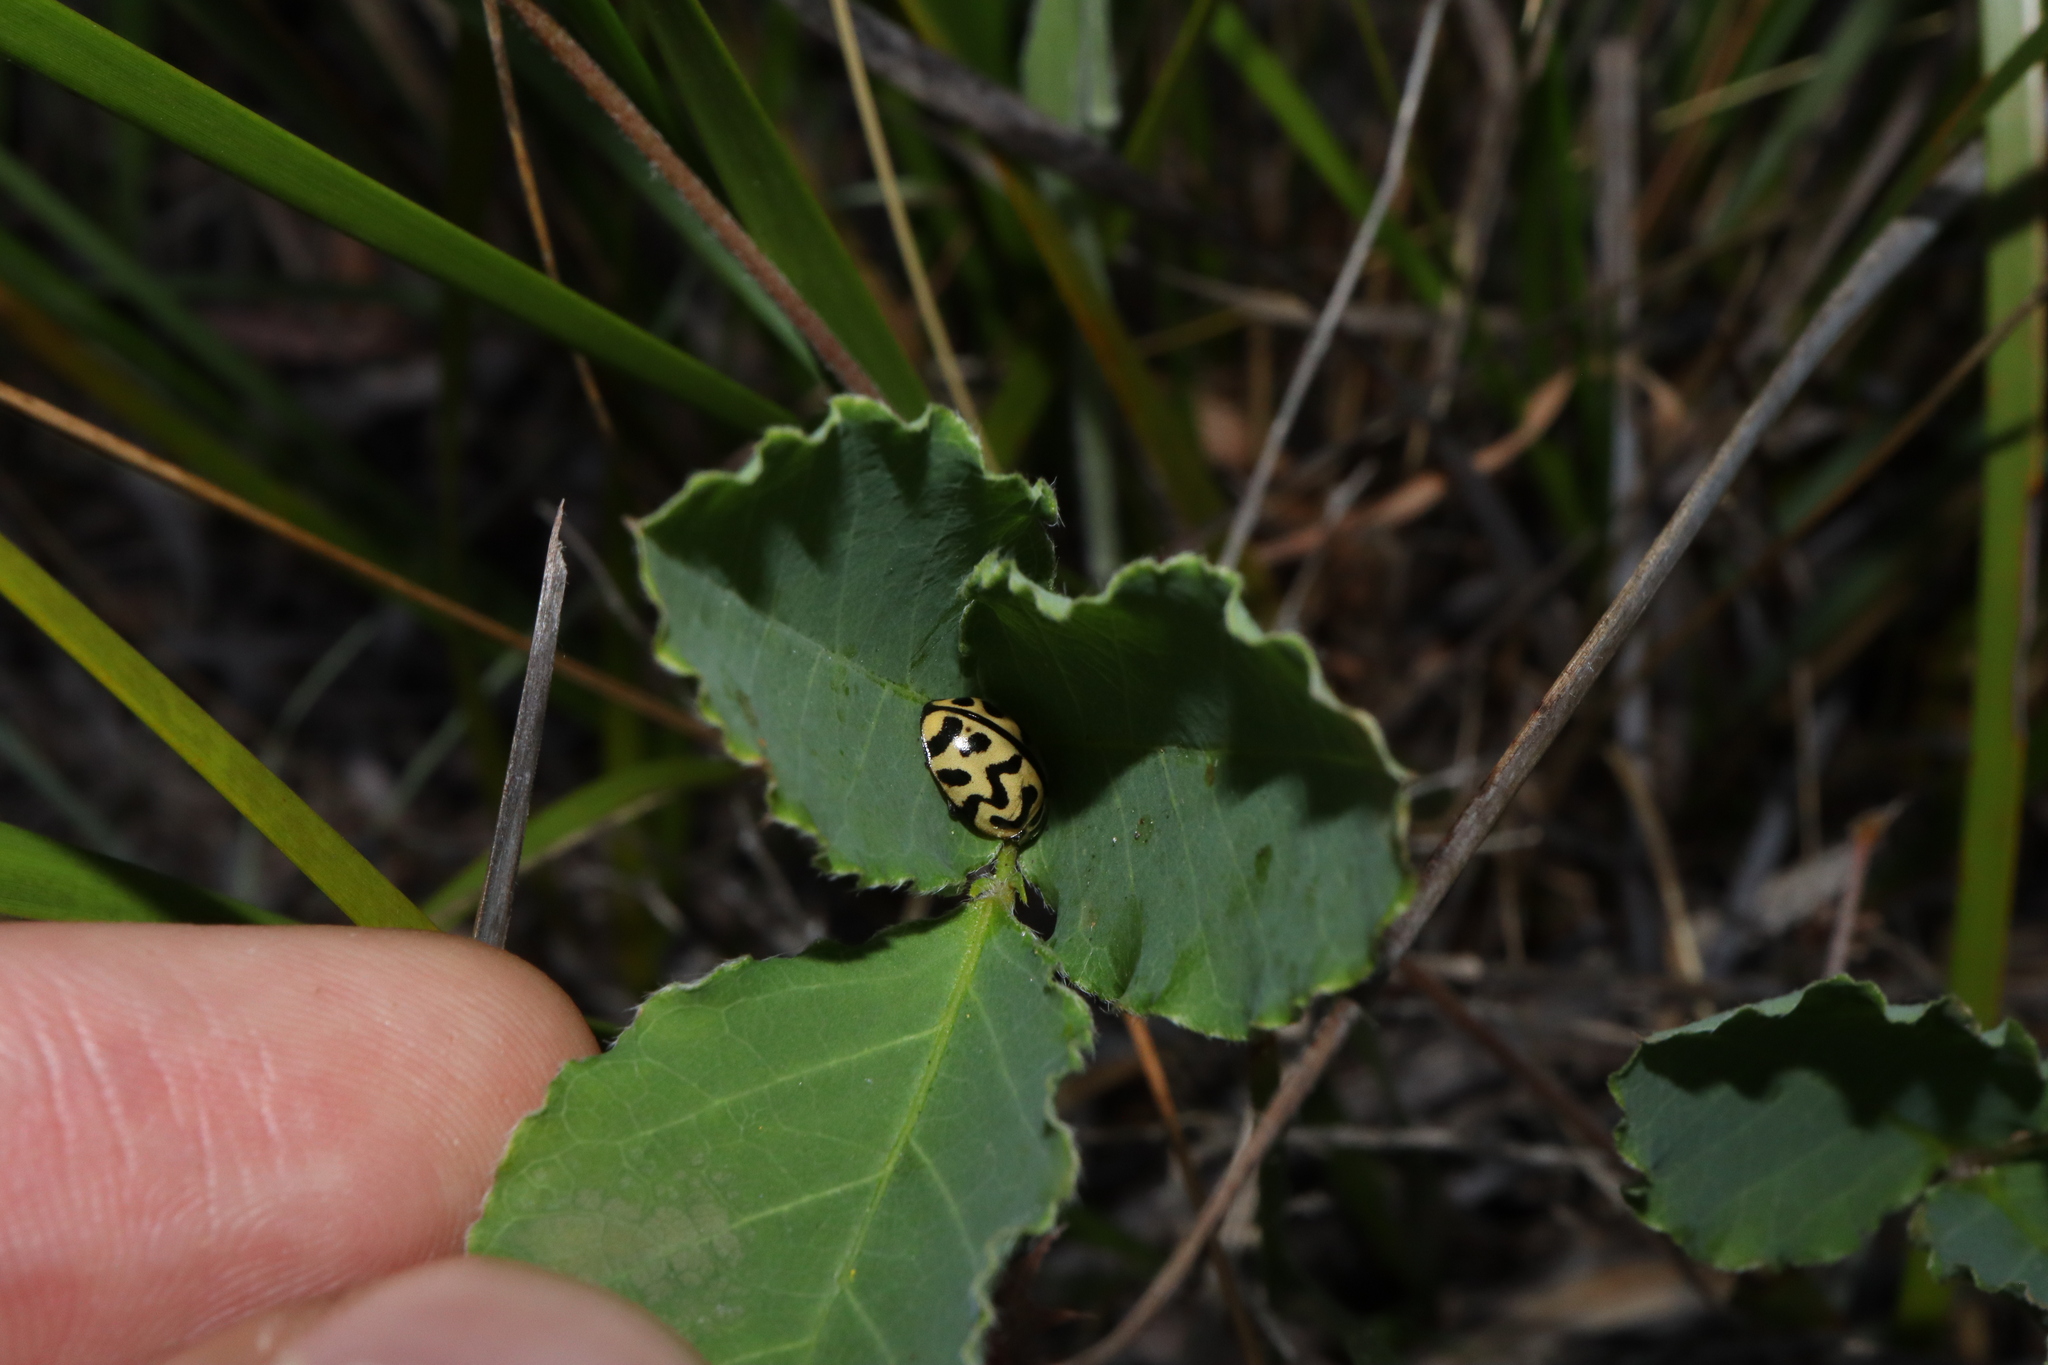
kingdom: Animalia
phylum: Arthropoda
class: Insecta
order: Coleoptera
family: Coccinellidae
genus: Cleobora
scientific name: Cleobora
